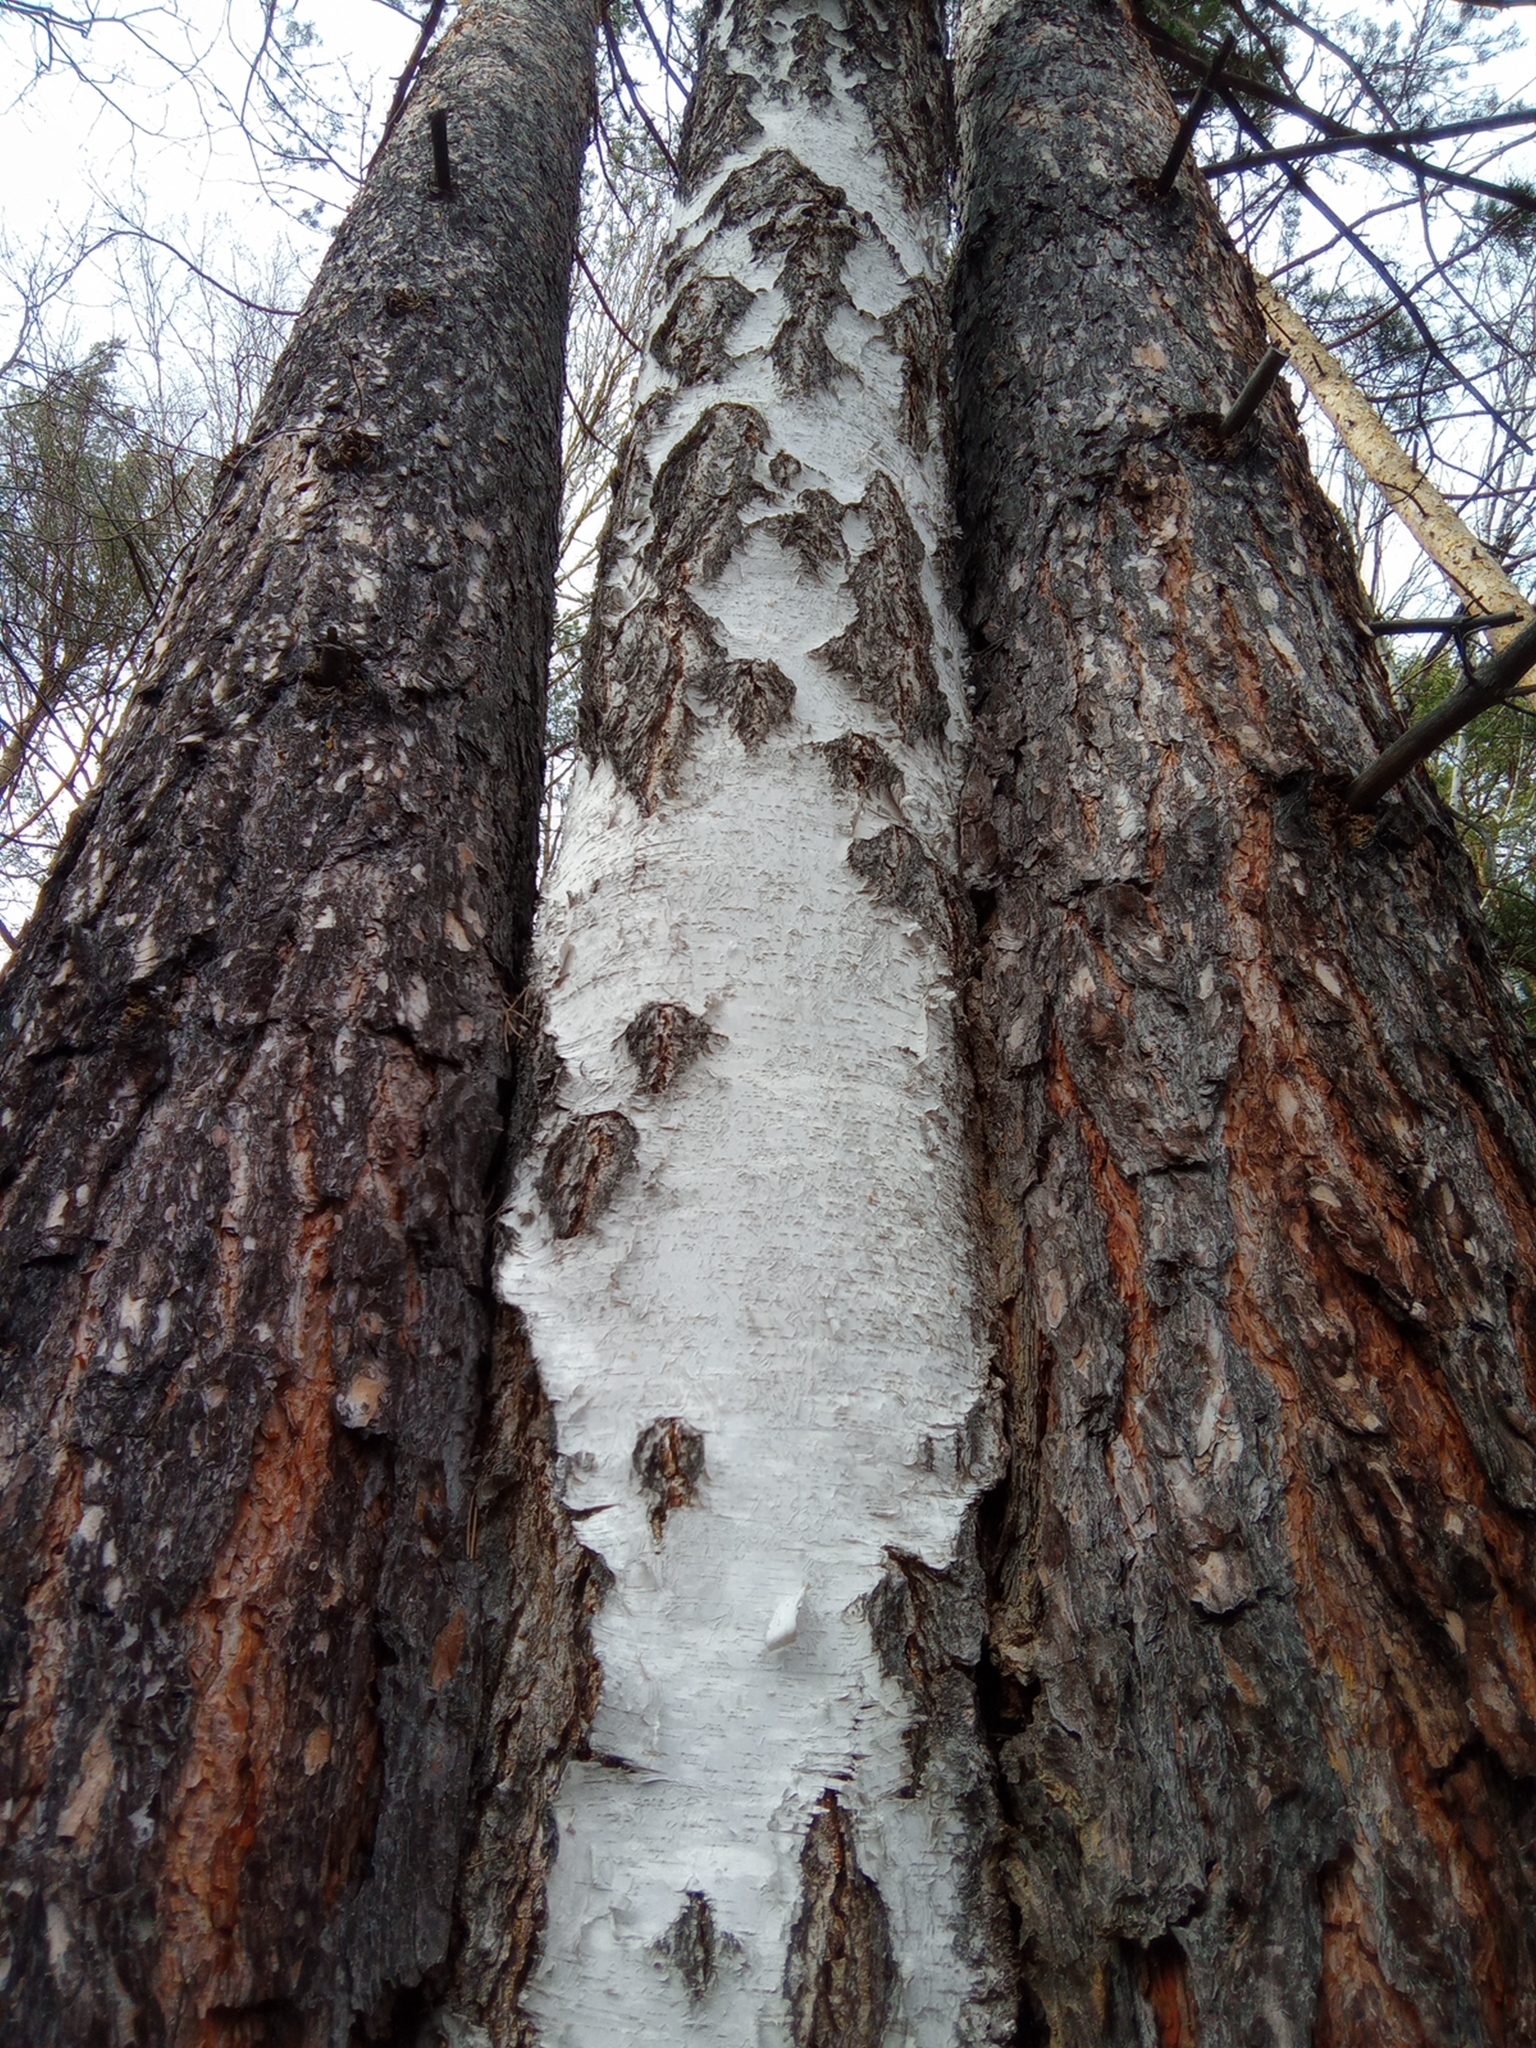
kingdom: Plantae
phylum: Tracheophyta
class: Pinopsida
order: Pinales
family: Pinaceae
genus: Pinus
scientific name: Pinus sylvestris
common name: Scots pine
